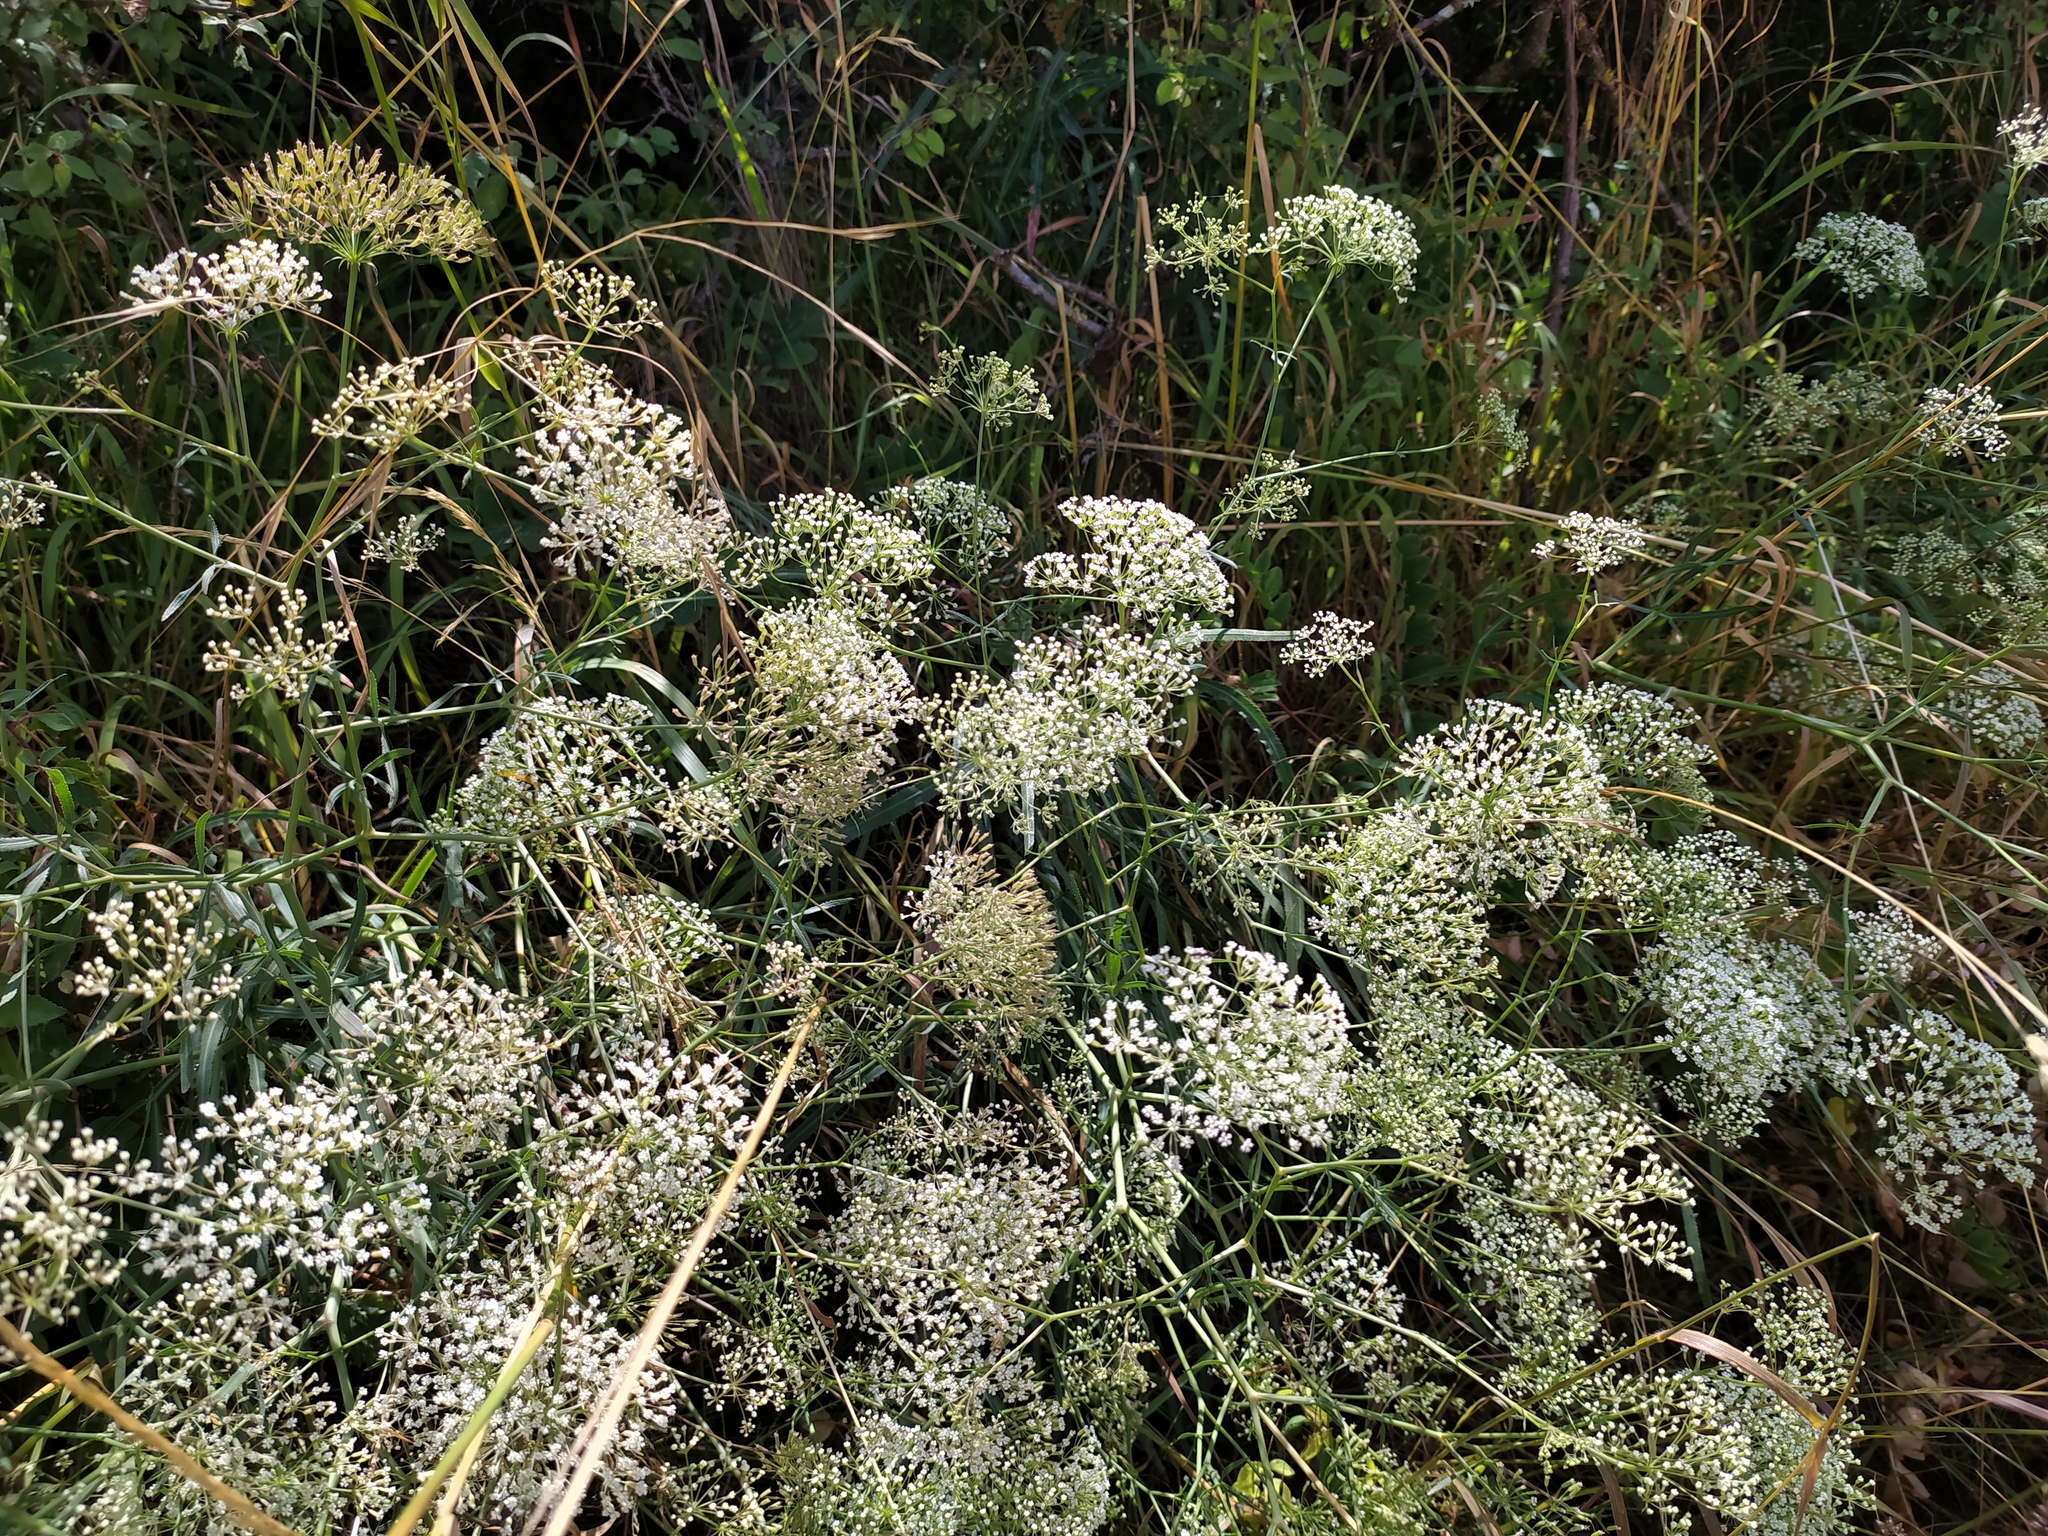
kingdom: Plantae
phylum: Tracheophyta
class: Magnoliopsida
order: Apiales
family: Apiaceae
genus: Falcaria
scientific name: Falcaria vulgaris
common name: Longleaf
